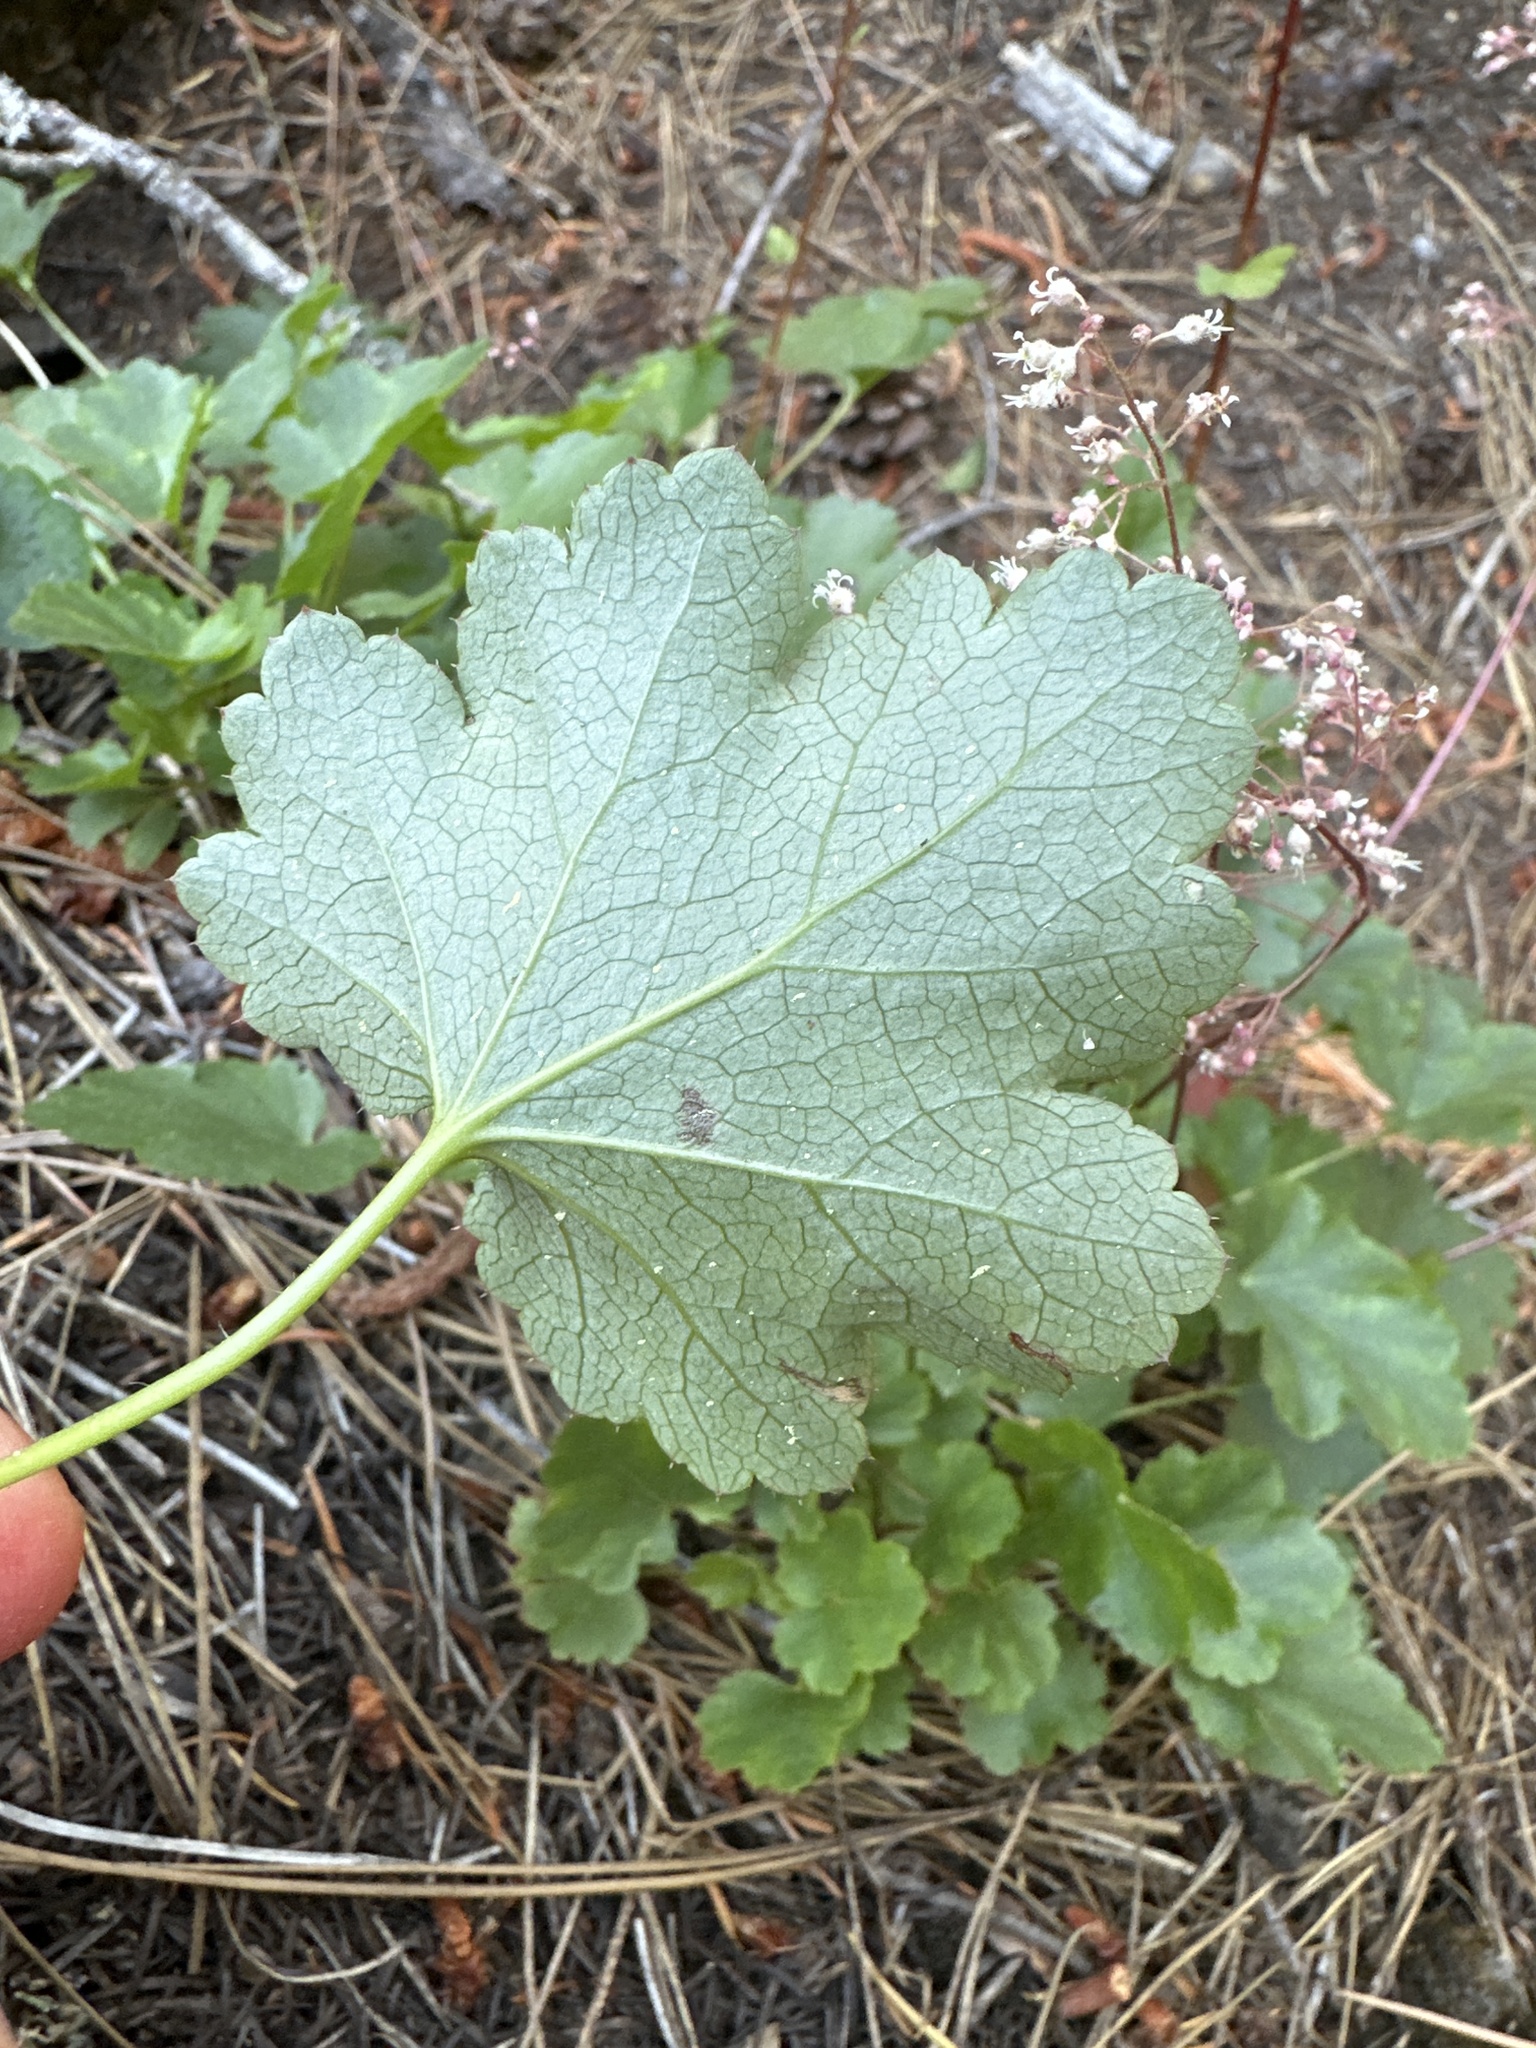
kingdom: Plantae
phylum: Tracheophyta
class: Magnoliopsida
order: Saxifragales
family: Saxifragaceae
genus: Heuchera
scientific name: Heuchera micrantha
